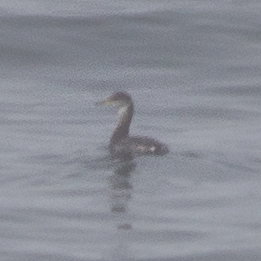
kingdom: Animalia
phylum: Chordata
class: Aves
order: Podicipediformes
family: Podicipedidae
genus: Podiceps
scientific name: Podiceps grisegena
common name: Red-necked grebe
